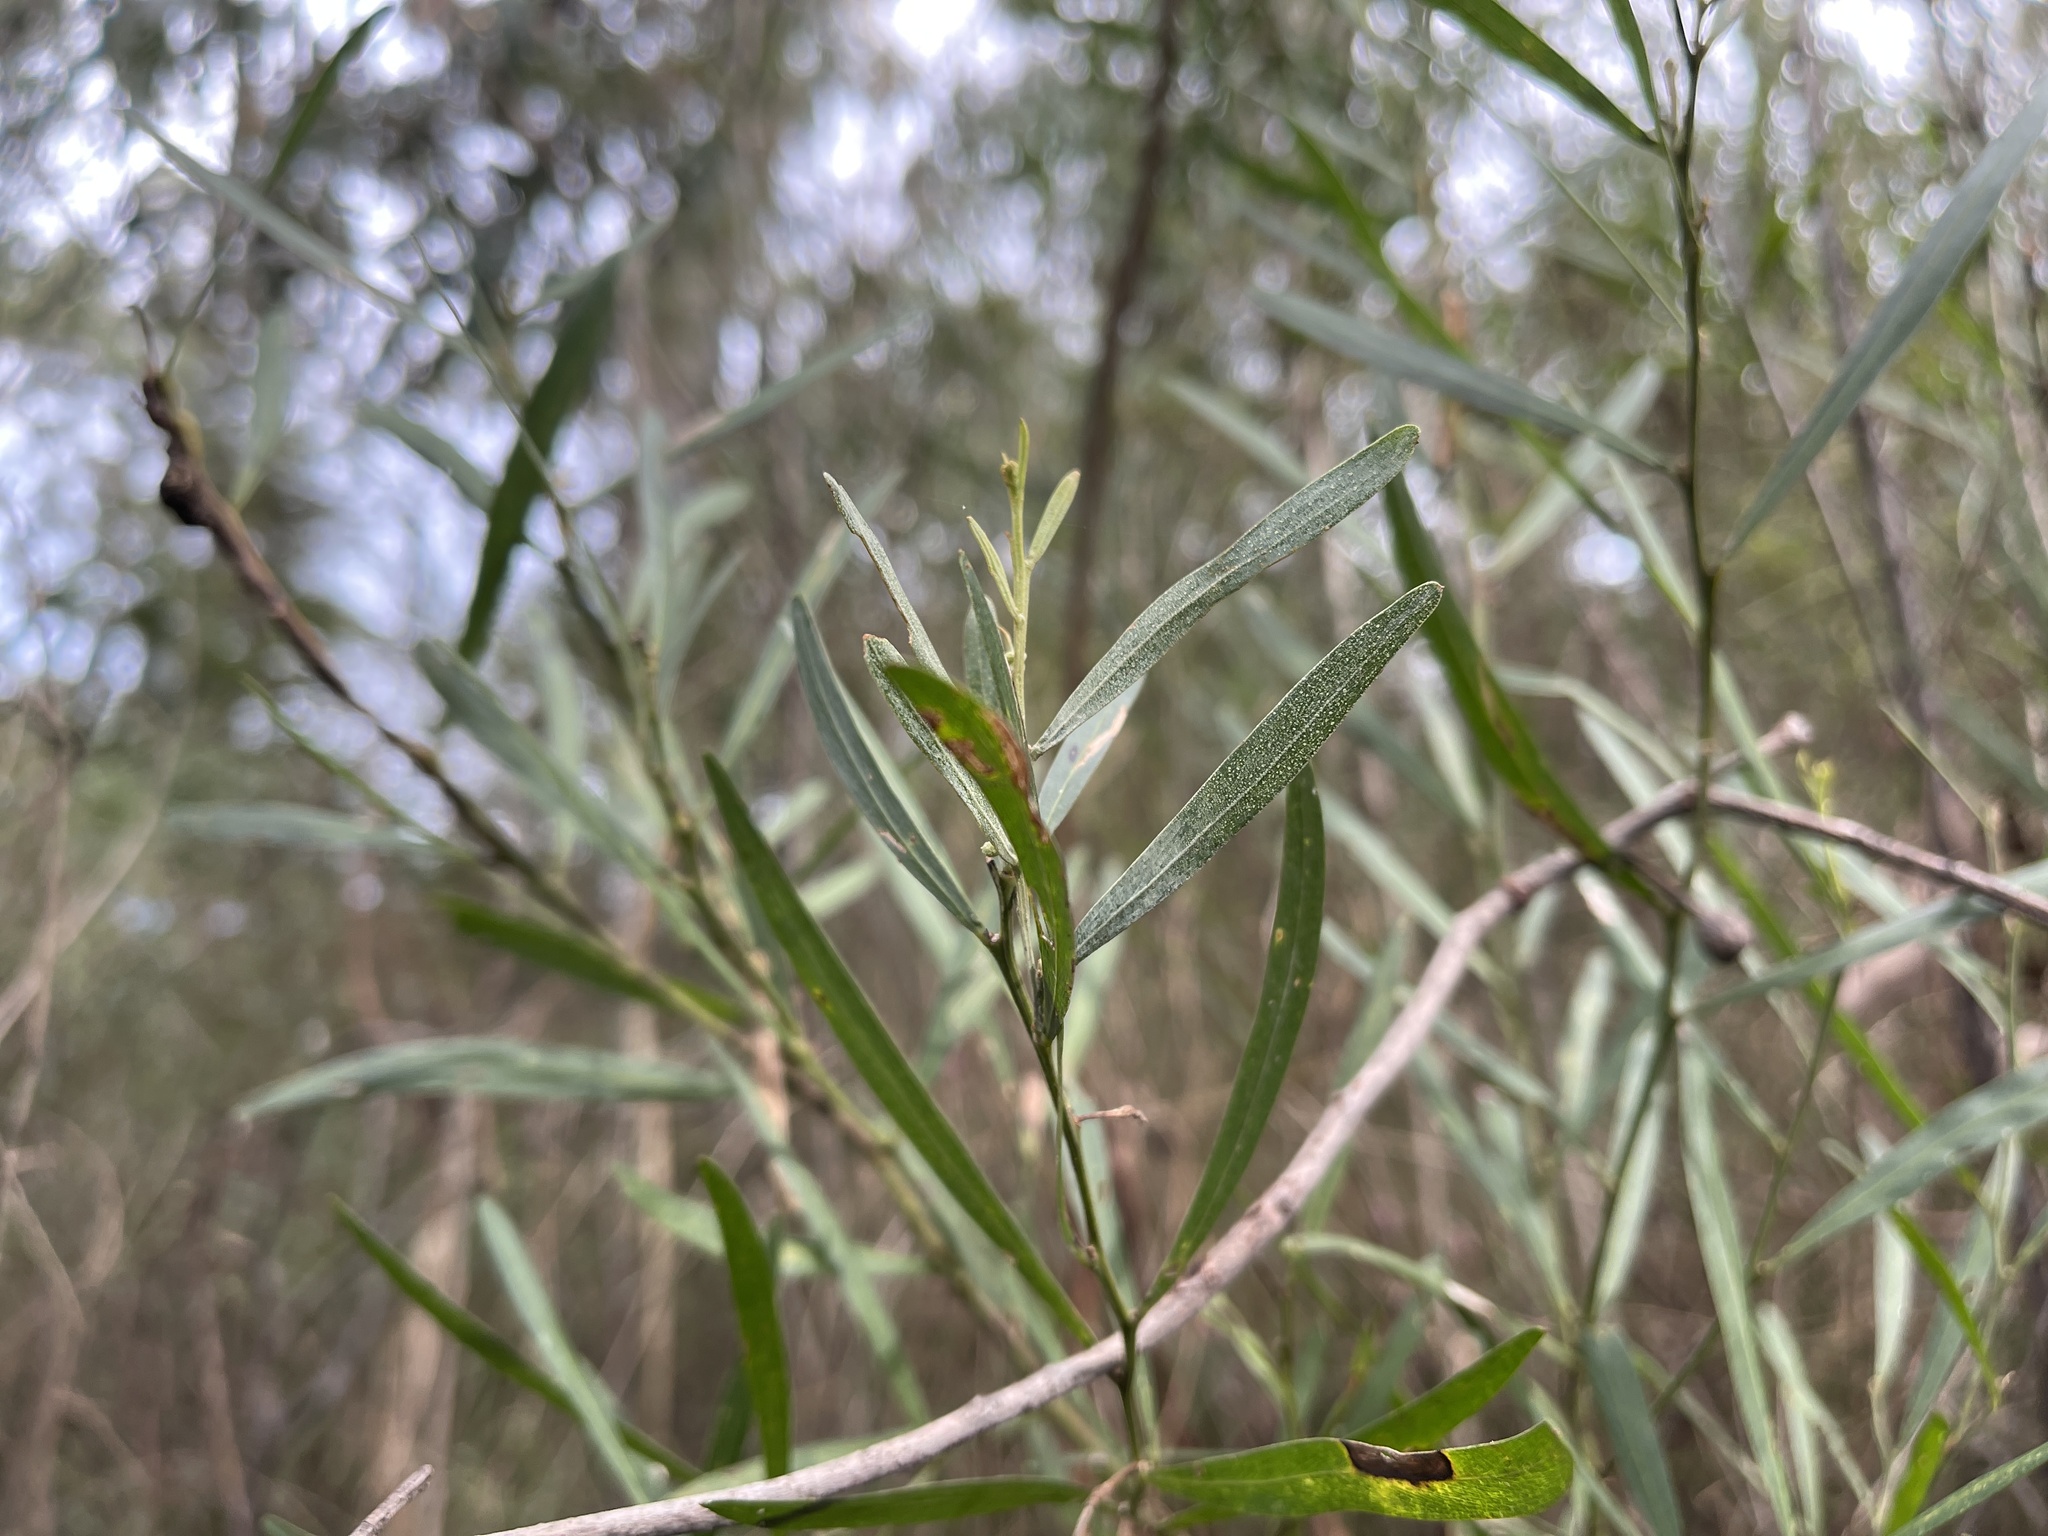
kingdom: Plantae
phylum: Tracheophyta
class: Magnoliopsida
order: Fabales
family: Fabaceae
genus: Acacia
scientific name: Acacia stricta
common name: Hop wattle
